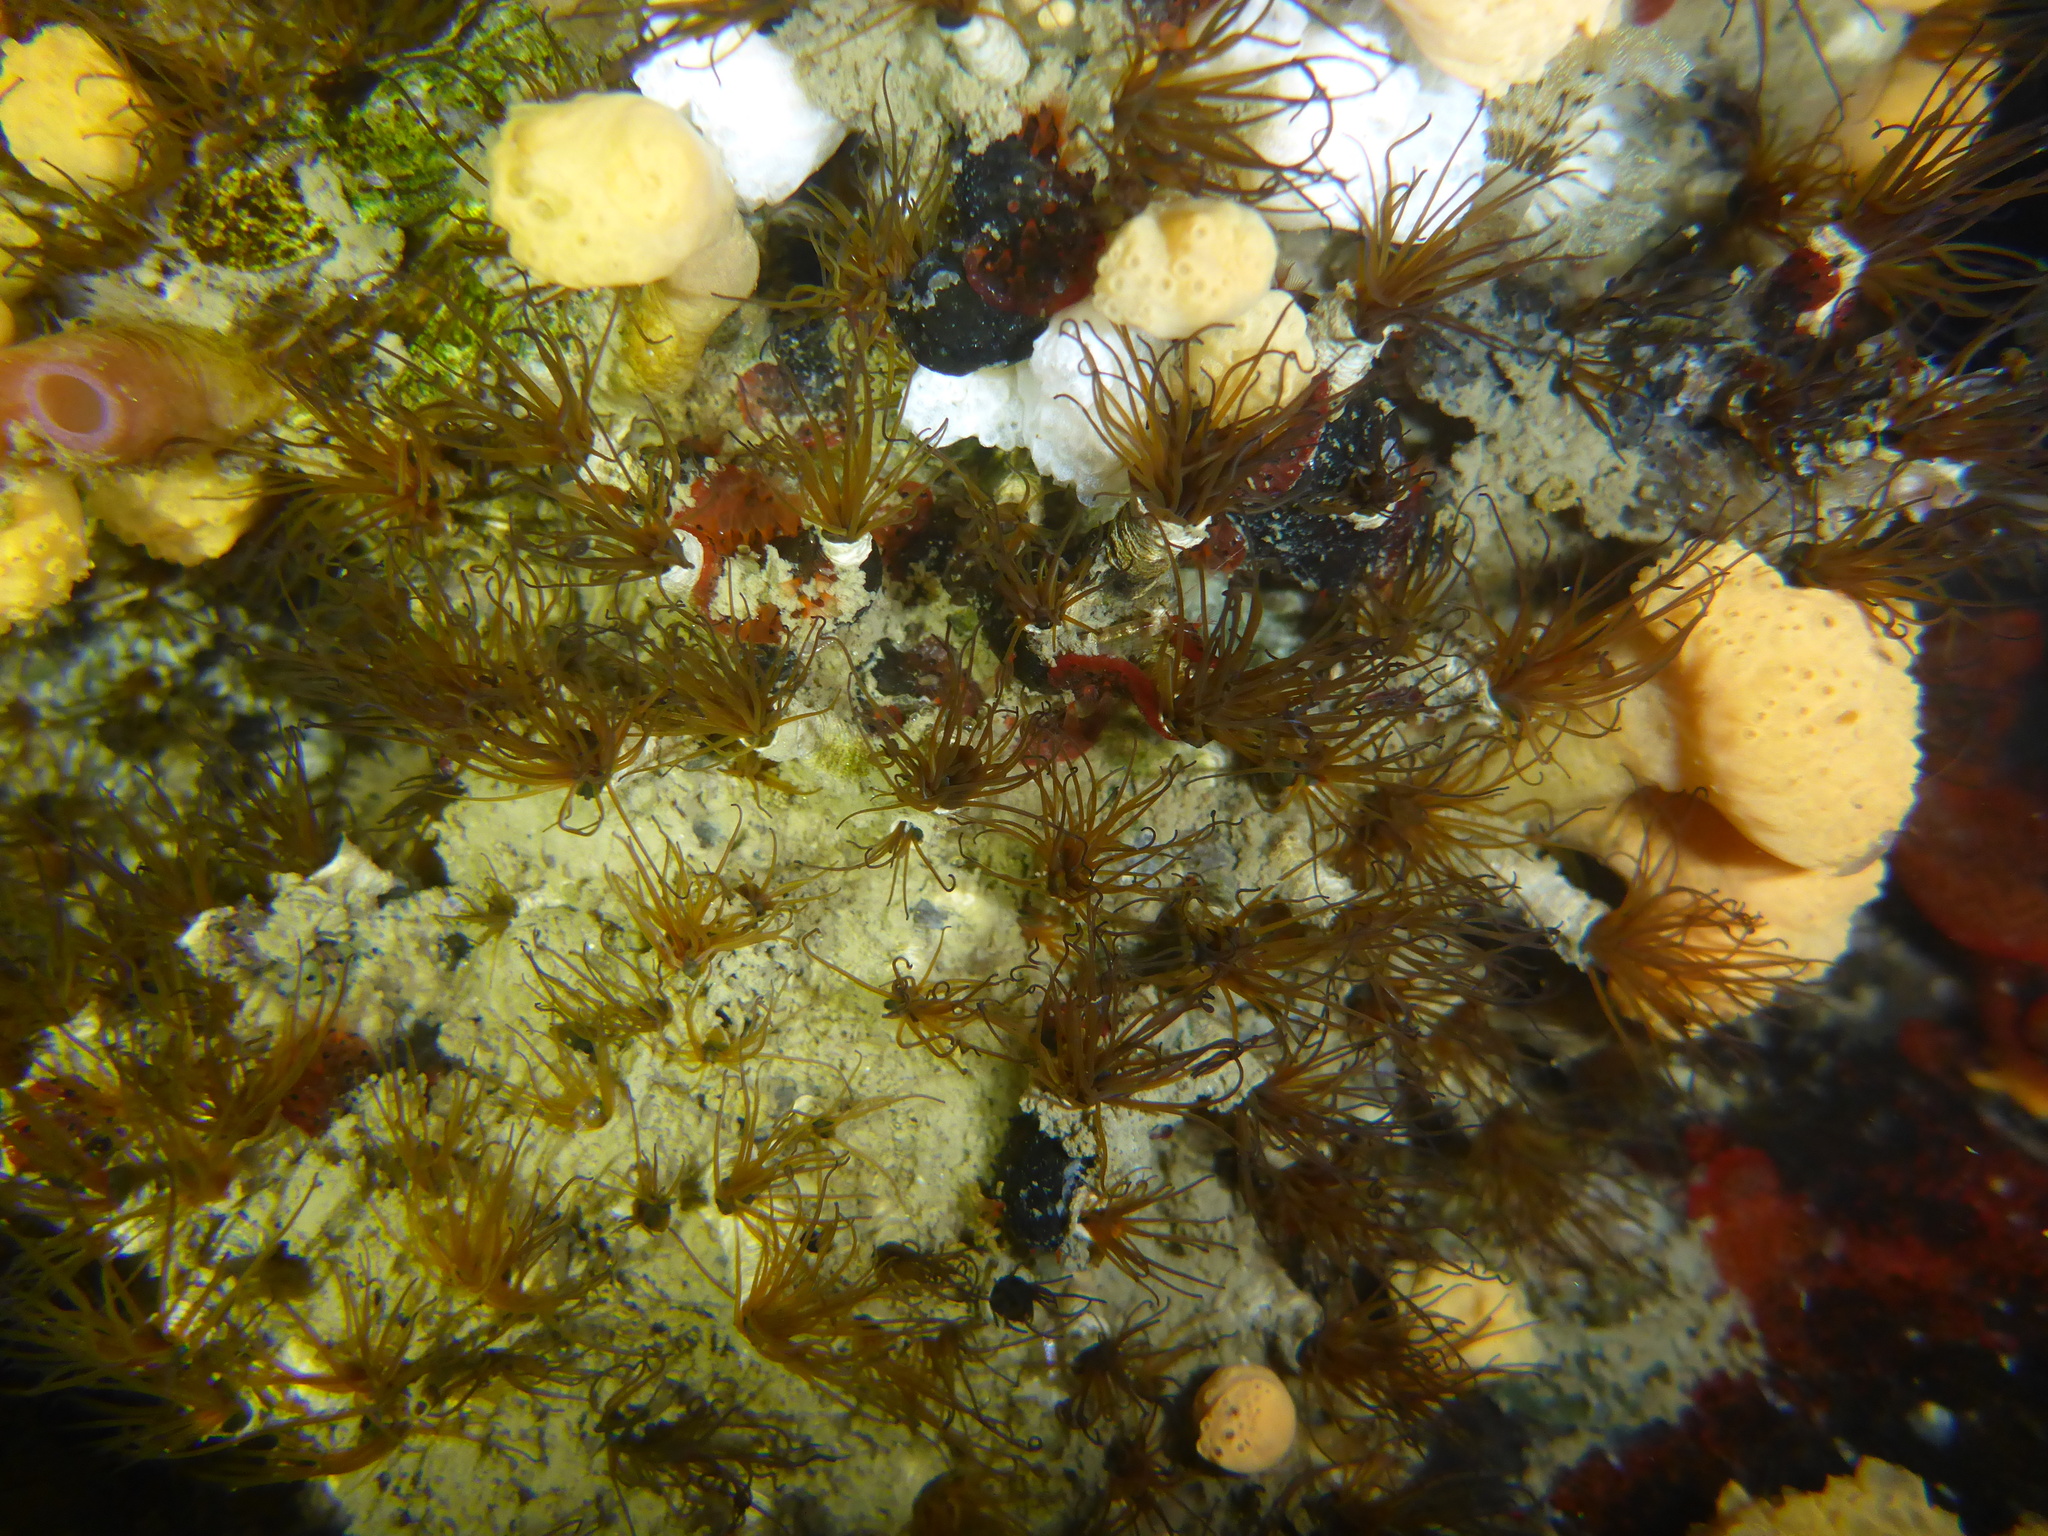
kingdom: Animalia
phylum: Annelida
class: Polychaeta
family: Cirratulidae
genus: Dodecaceria
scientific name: Dodecaceria pacifica
